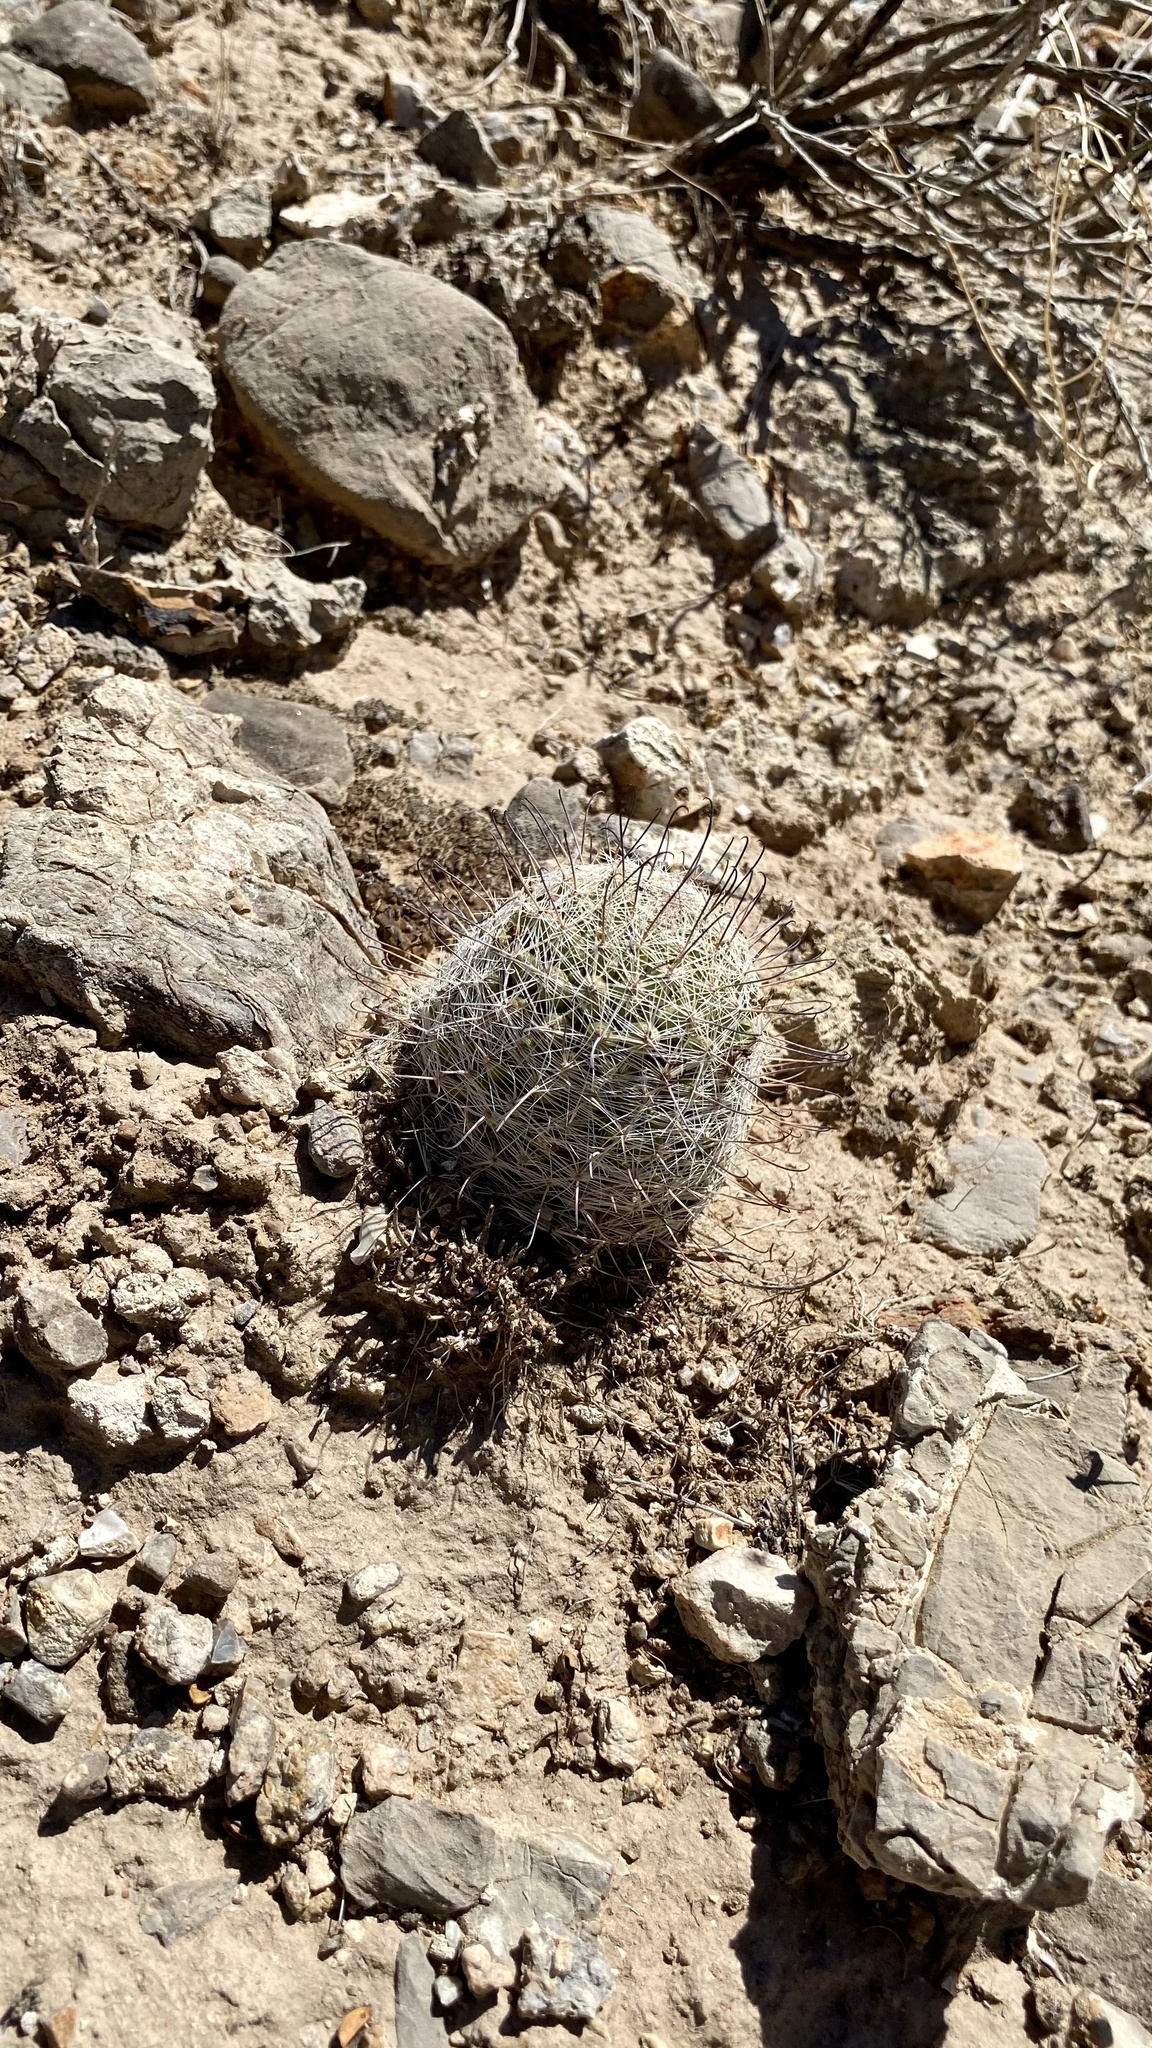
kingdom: Plantae
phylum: Tracheophyta
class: Magnoliopsida
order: Caryophyllales
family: Cactaceae
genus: Cochemiea
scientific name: Cochemiea grahamii
